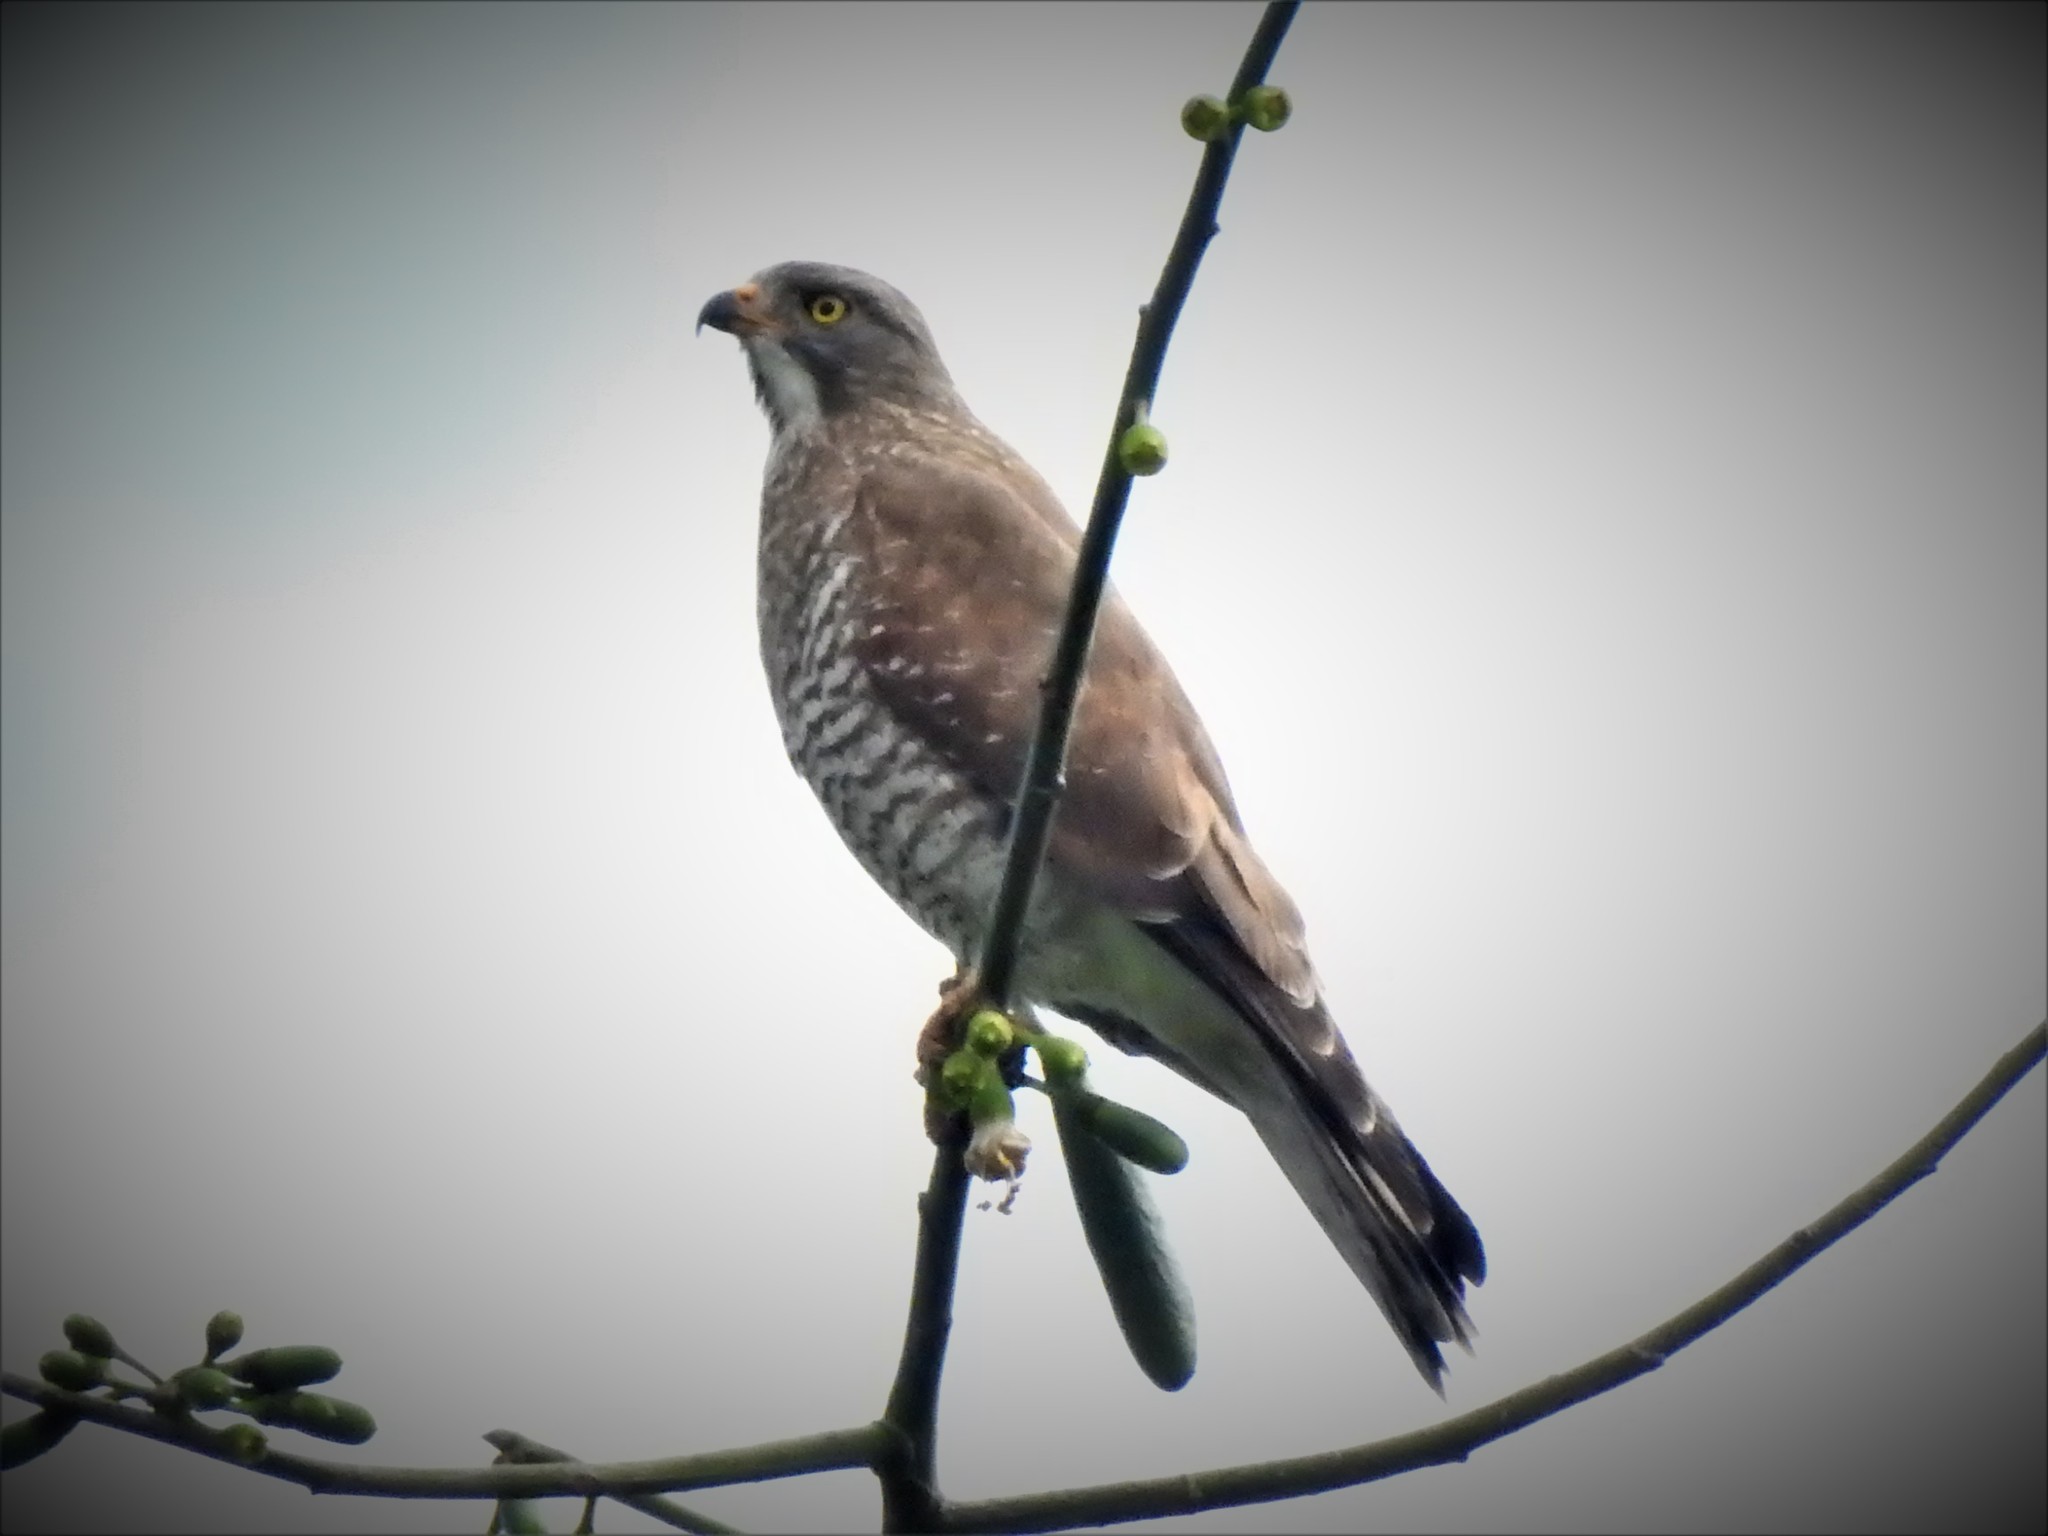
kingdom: Animalia
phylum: Chordata
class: Aves
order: Accipitriformes
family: Accipitridae
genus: Butastur
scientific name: Butastur indicus
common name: Grey-faced buzzard
